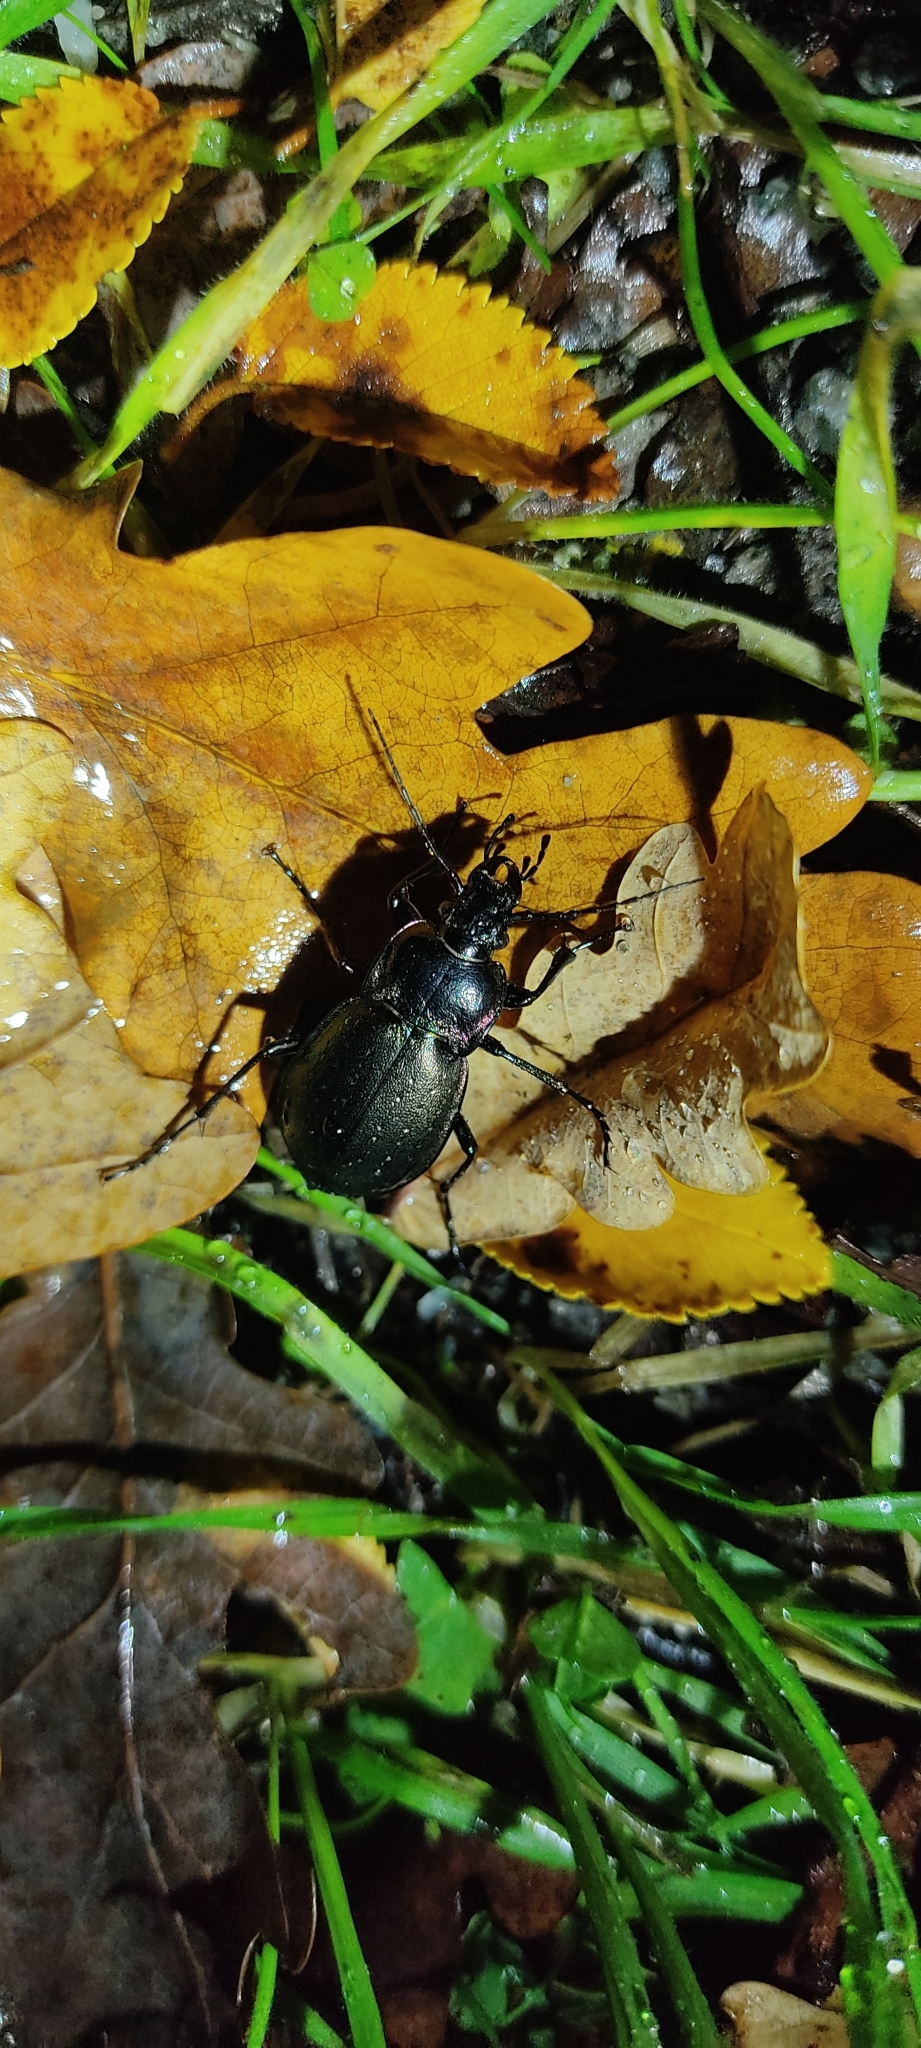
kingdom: Animalia
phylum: Arthropoda
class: Insecta
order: Coleoptera
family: Carabidae
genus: Carabus
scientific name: Carabus nemoralis
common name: European ground beetle
